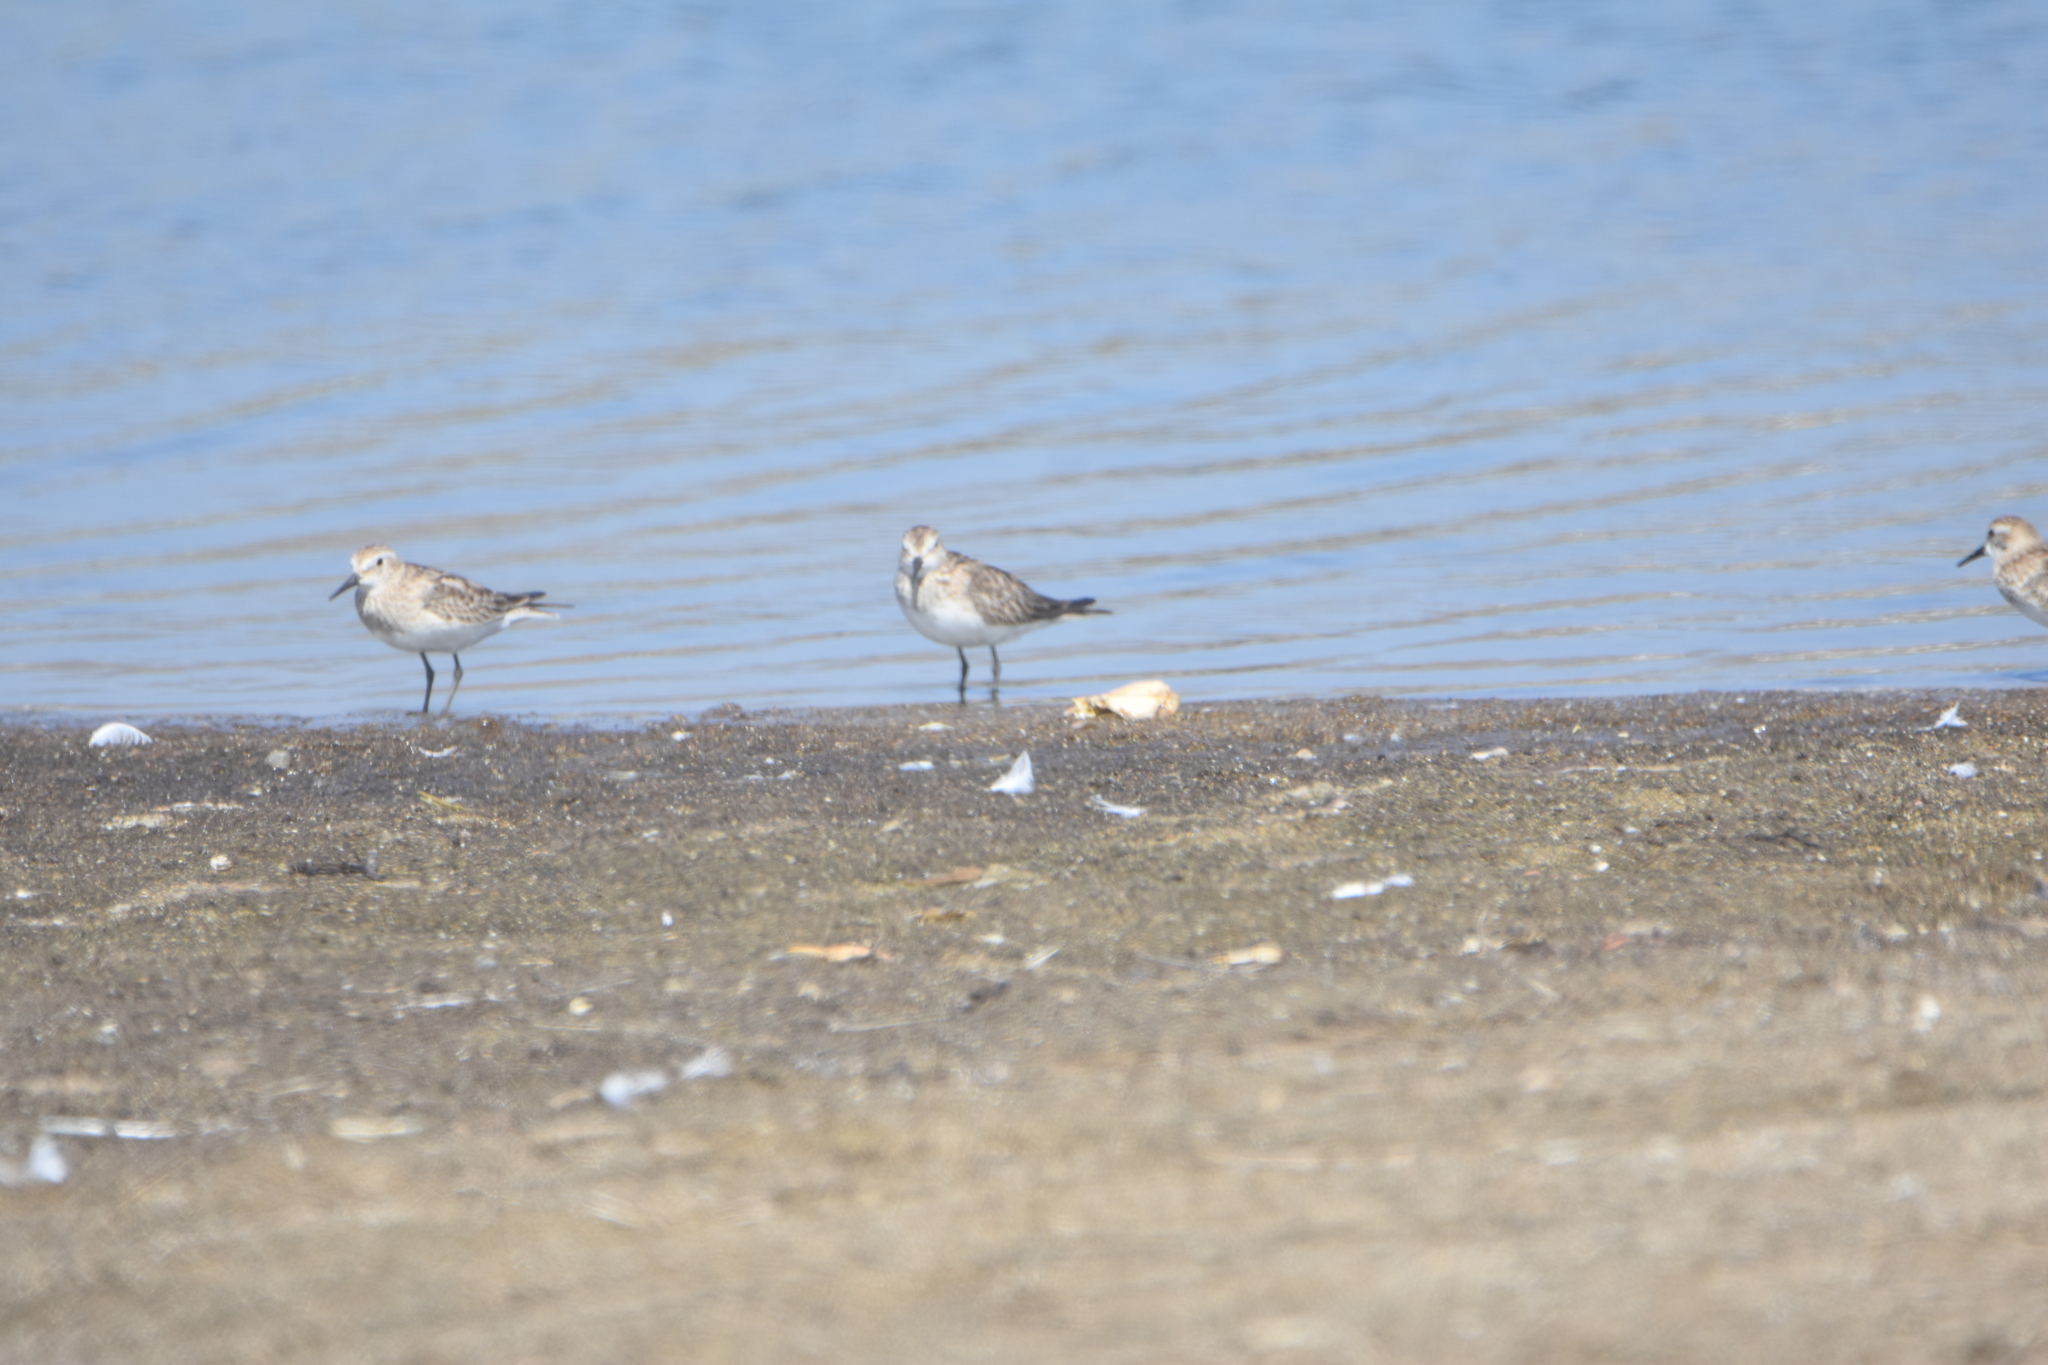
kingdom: Animalia
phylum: Chordata
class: Aves
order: Charadriiformes
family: Scolopacidae
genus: Calidris
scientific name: Calidris bairdii
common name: Baird's sandpiper
